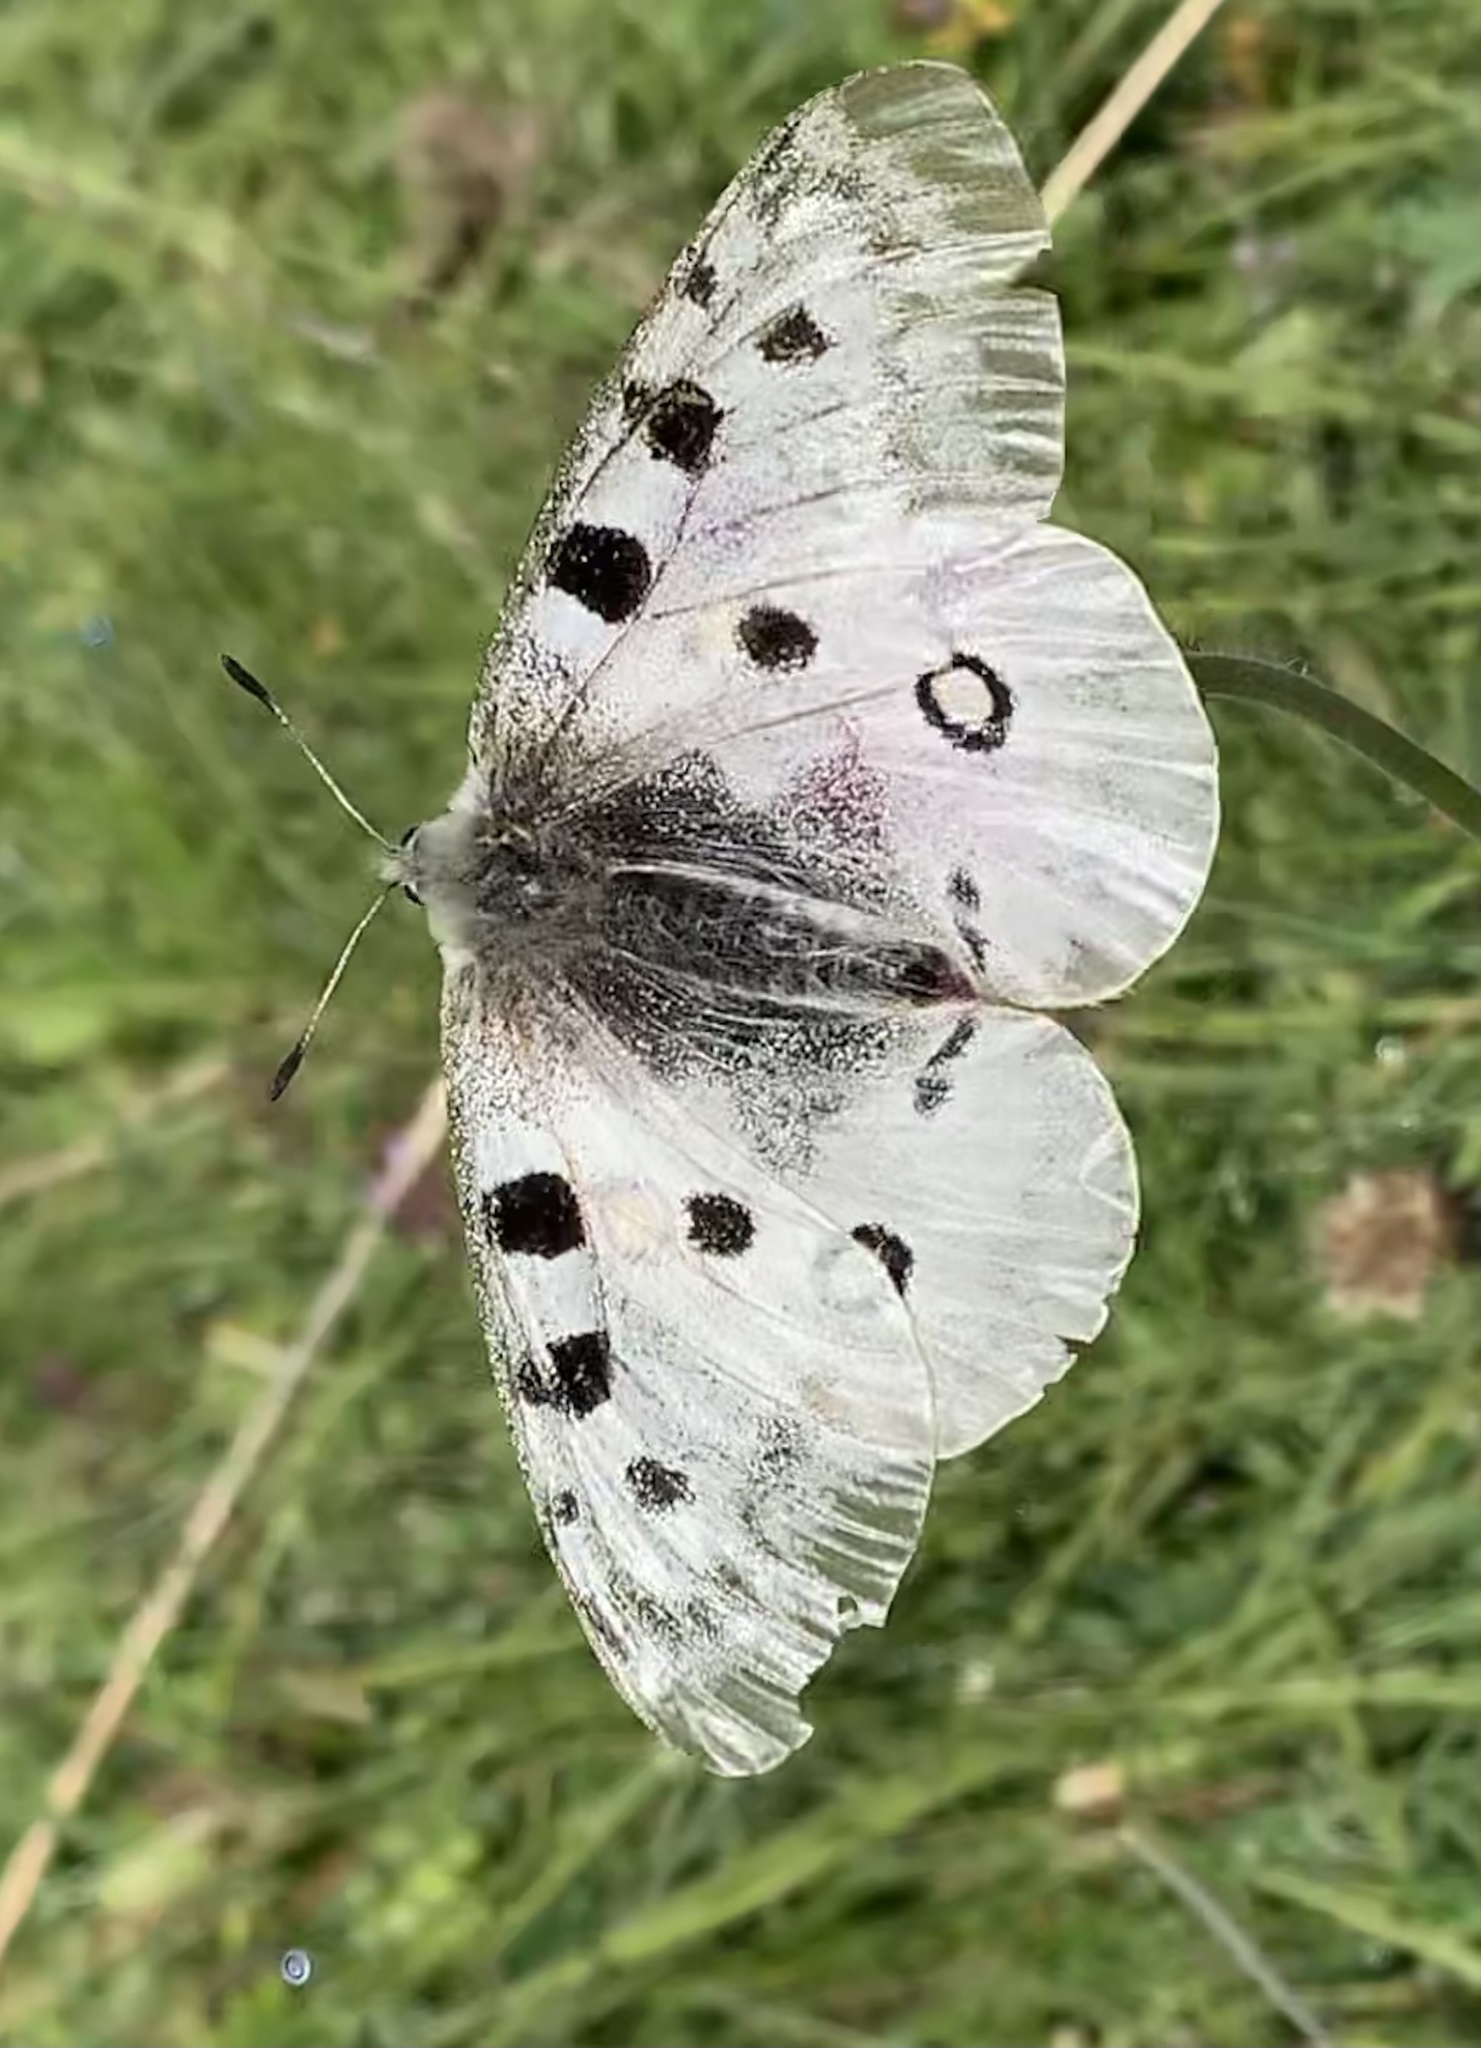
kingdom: Animalia
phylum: Arthropoda
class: Insecta
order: Lepidoptera
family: Papilionidae
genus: Parnassius
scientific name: Parnassius apollo
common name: Apollo
